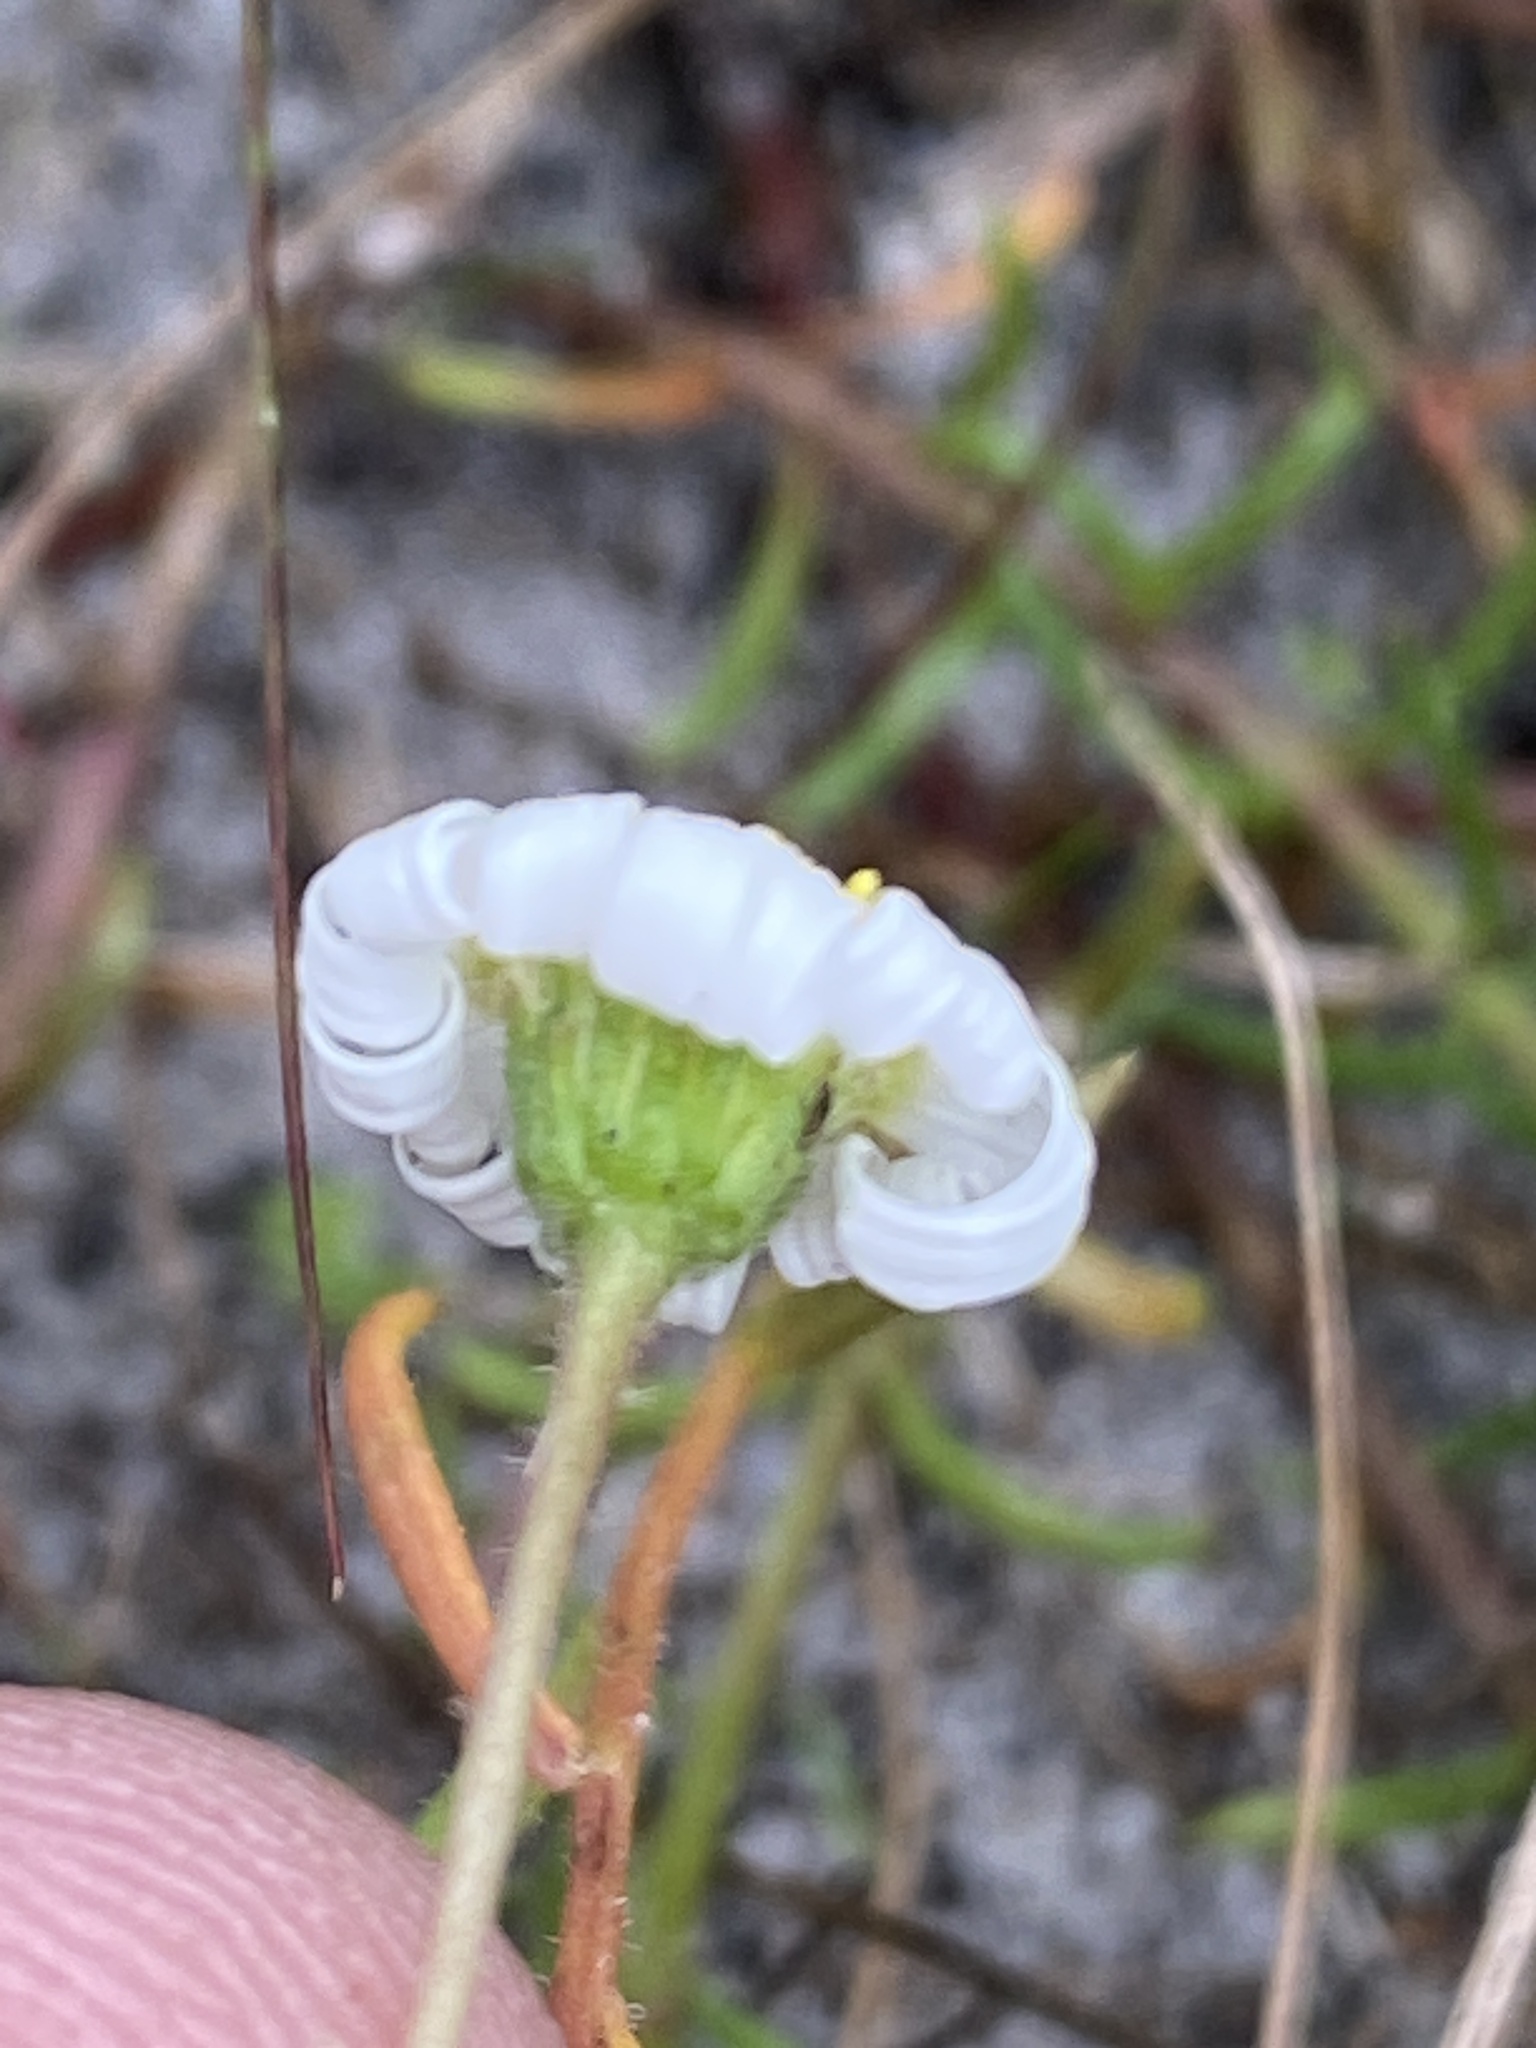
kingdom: Plantae
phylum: Tracheophyta
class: Magnoliopsida
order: Asterales
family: Asteraceae
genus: Felicia
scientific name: Felicia tenella
